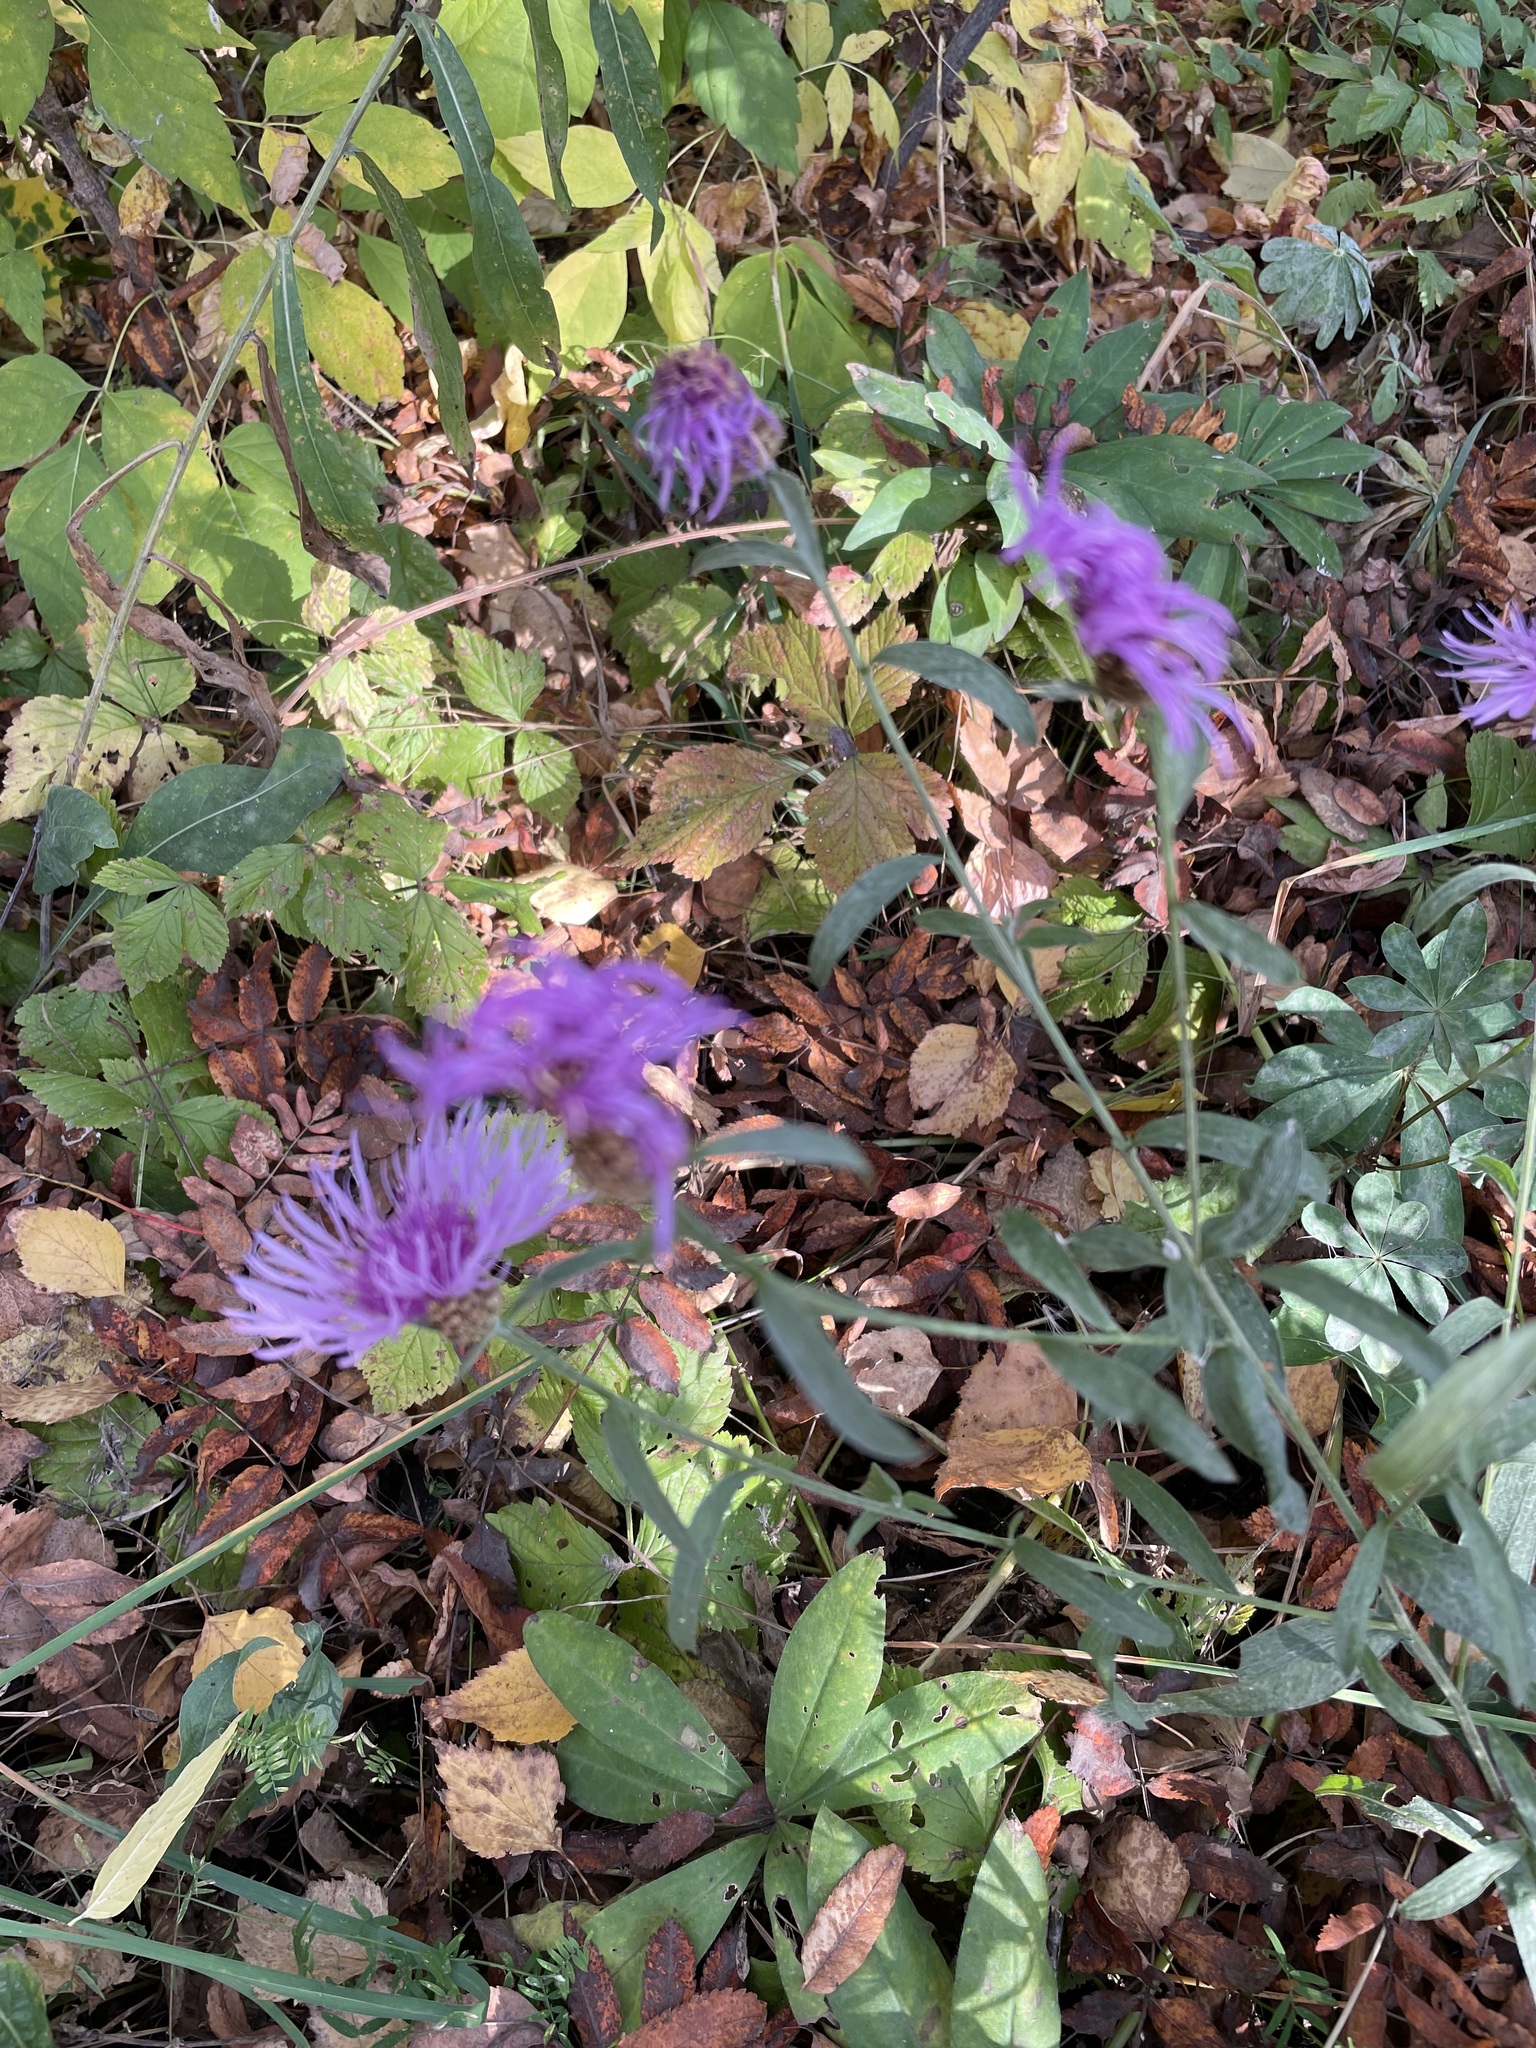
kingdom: Plantae
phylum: Tracheophyta
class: Magnoliopsida
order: Asterales
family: Asteraceae
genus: Centaurea
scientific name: Centaurea jacea
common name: Brown knapweed
